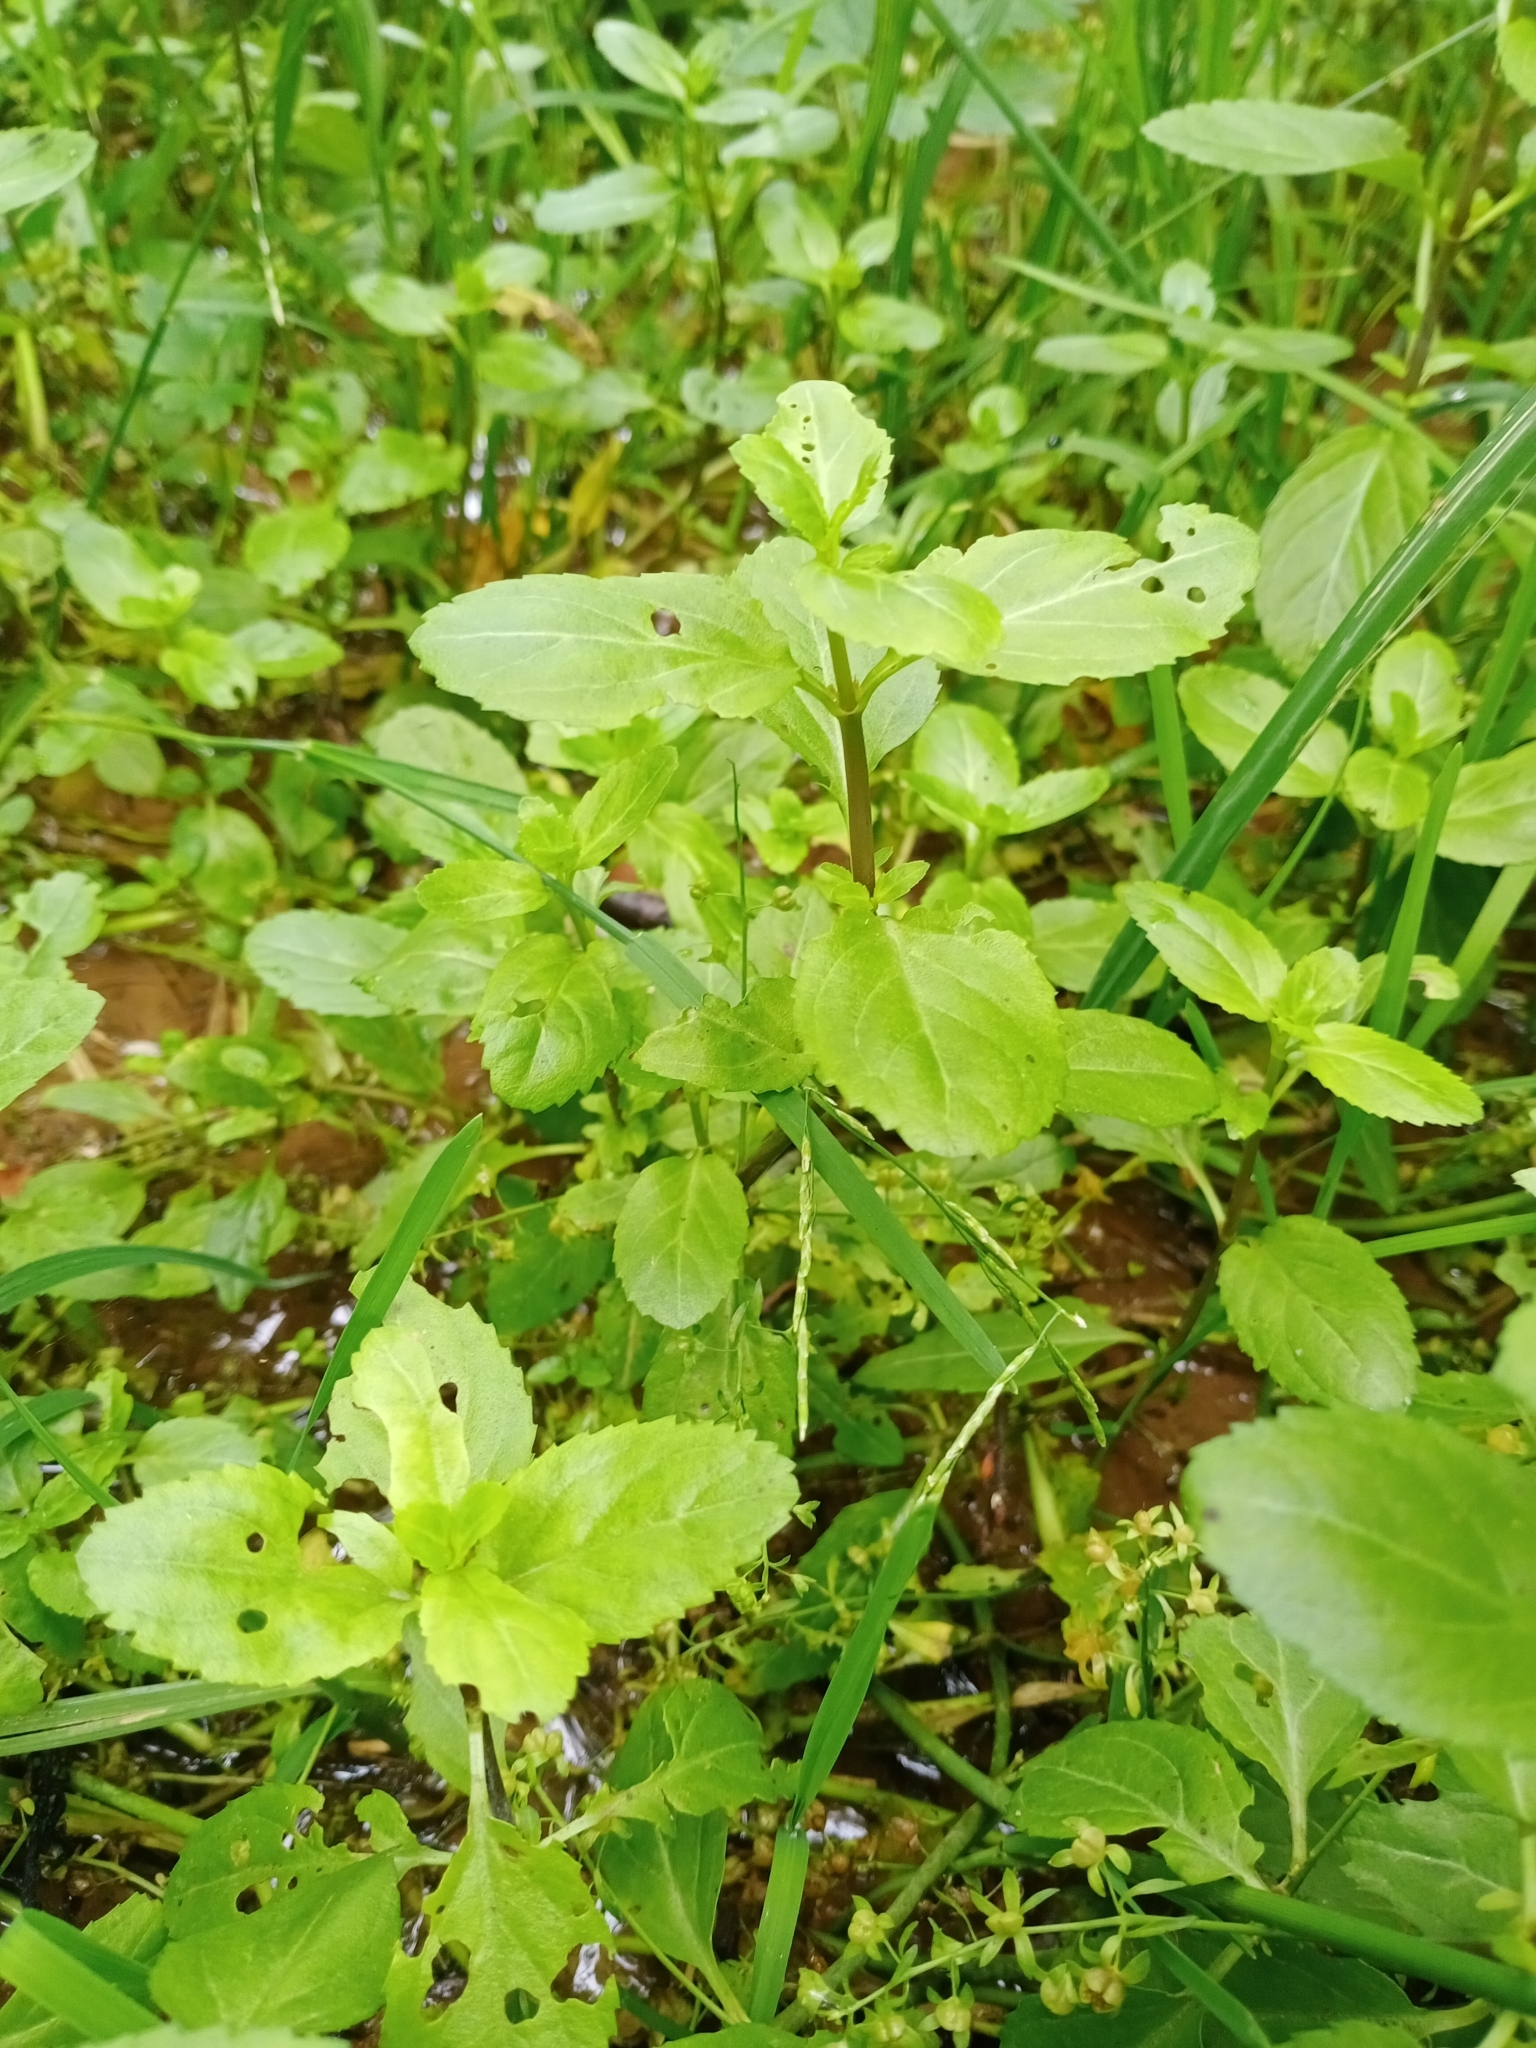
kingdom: Plantae
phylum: Tracheophyta
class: Magnoliopsida
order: Lamiales
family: Plantaginaceae
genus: Veronica
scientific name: Veronica beccabunga
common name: Brooklime
